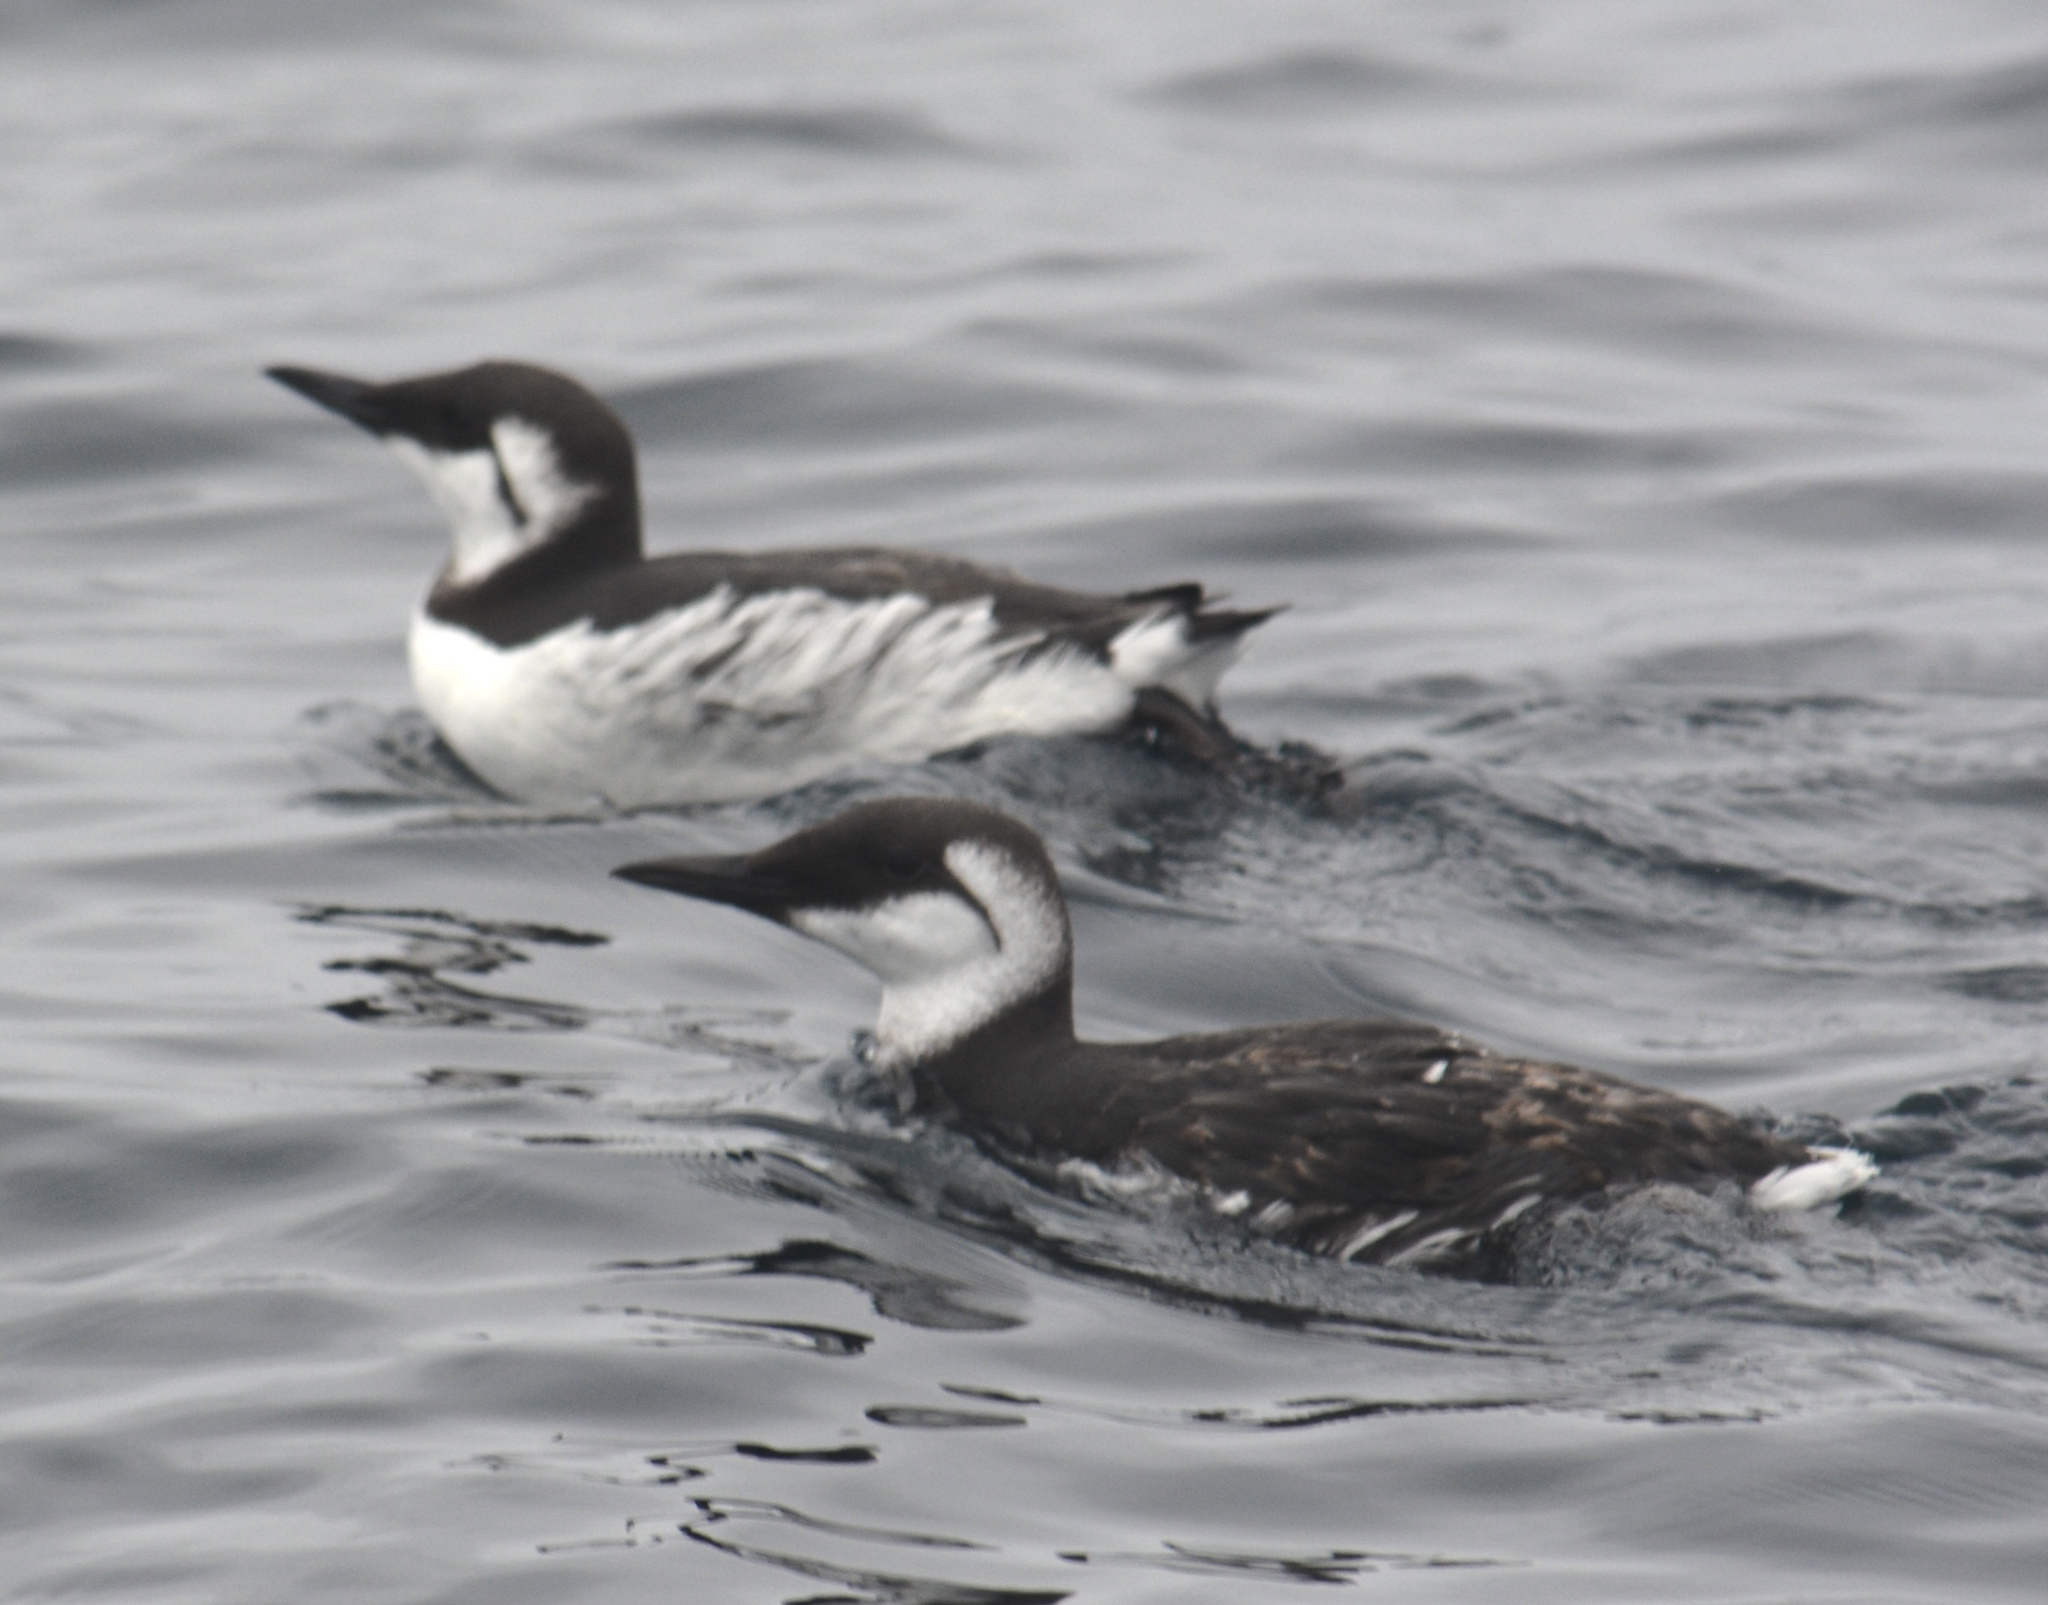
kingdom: Animalia
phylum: Chordata
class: Aves
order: Charadriiformes
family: Alcidae
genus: Uria
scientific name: Uria aalge
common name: Common murre
